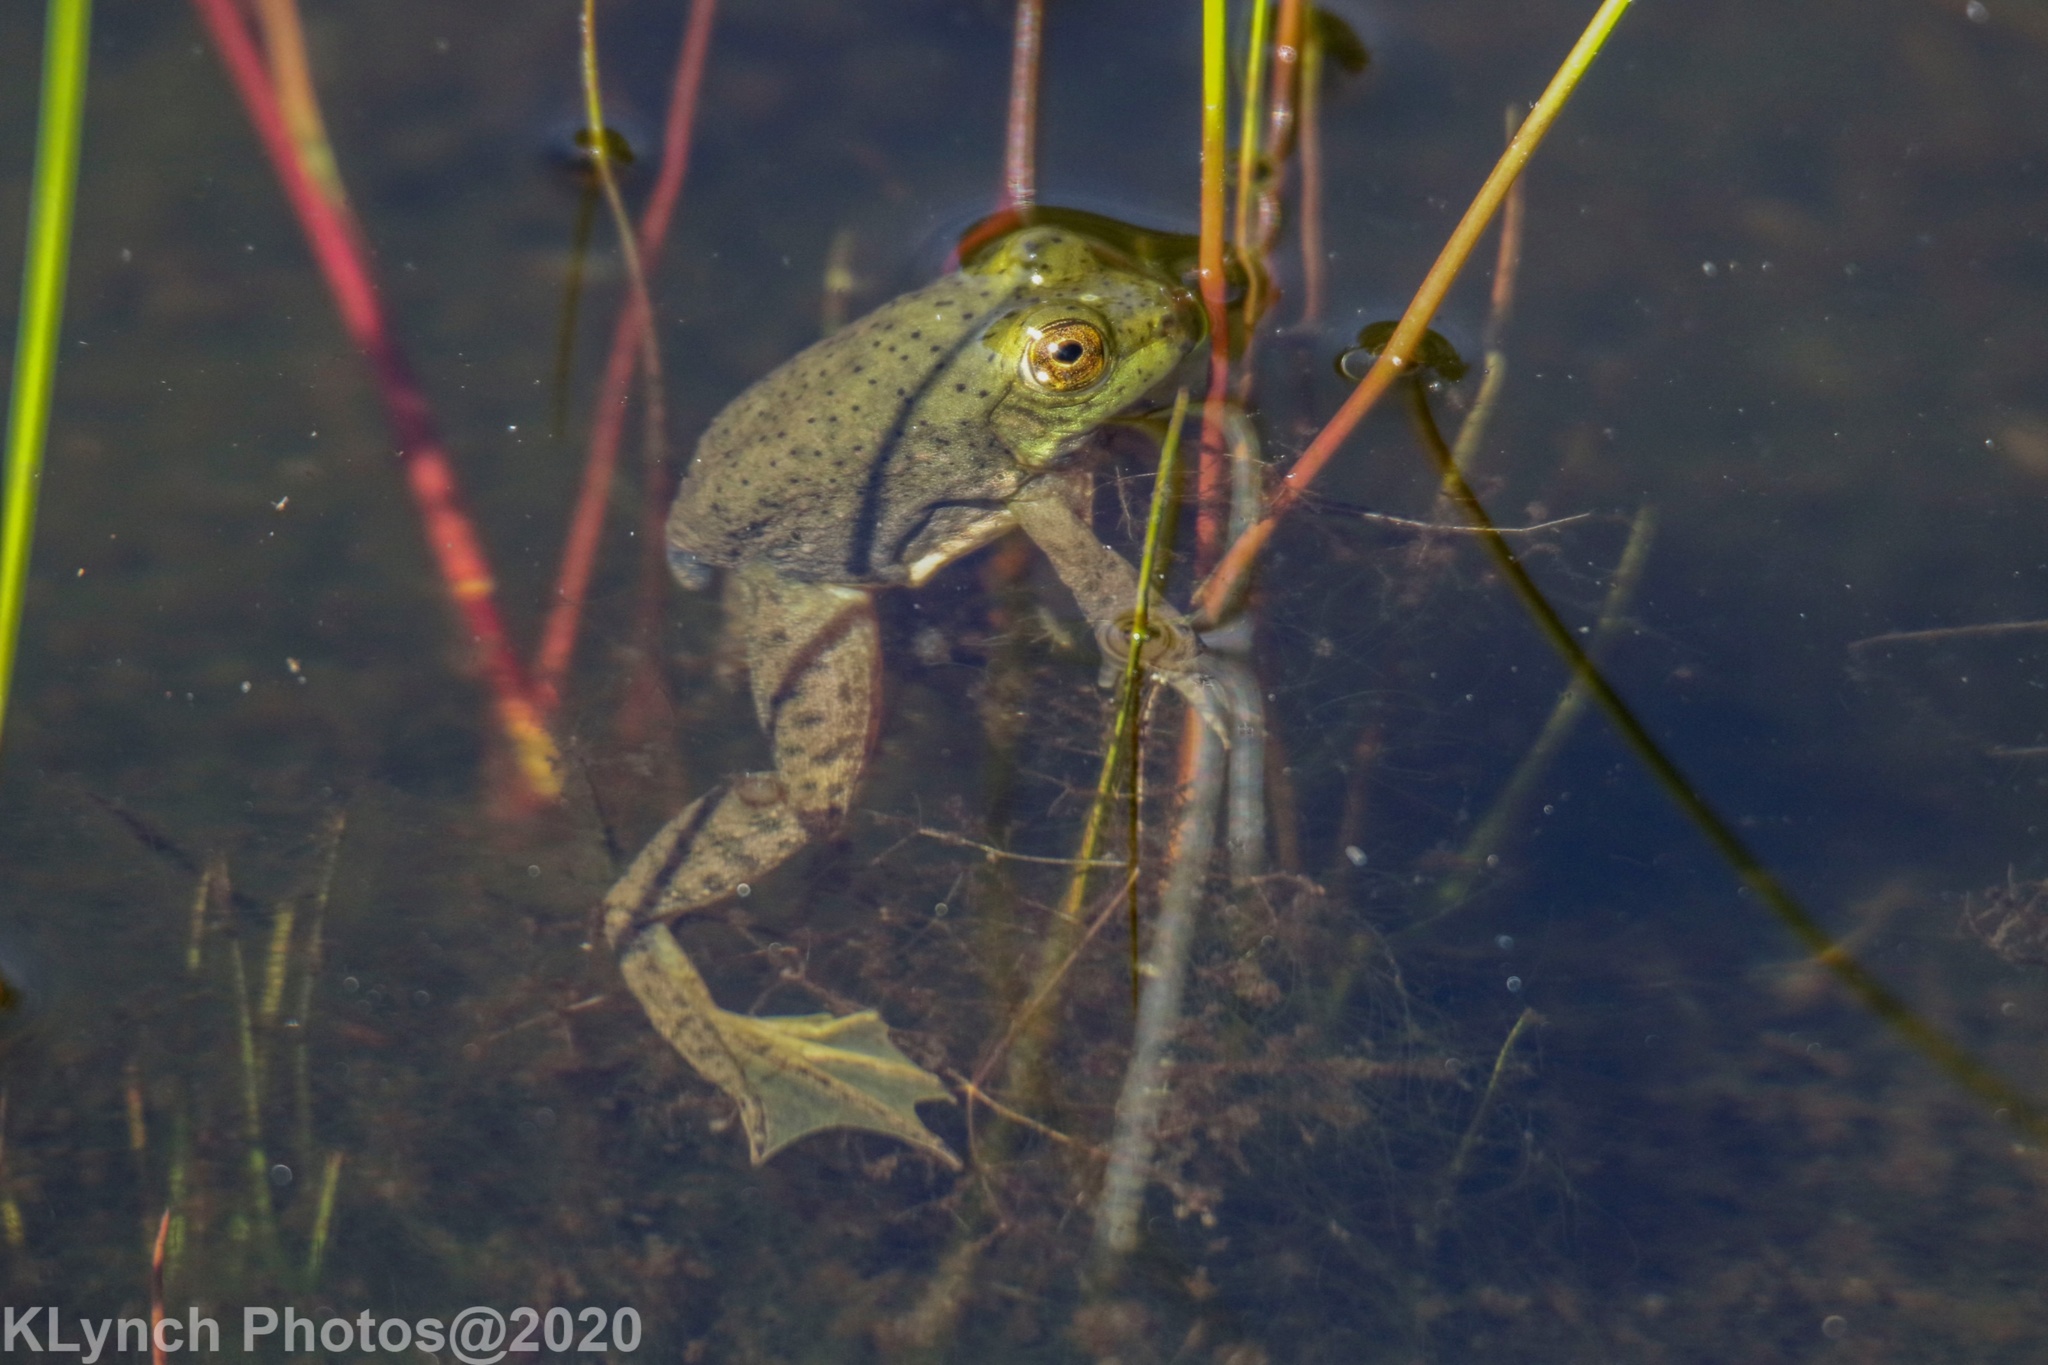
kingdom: Animalia
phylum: Chordata
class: Amphibia
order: Anura
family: Ranidae
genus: Lithobates
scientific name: Lithobates catesbeianus
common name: American bullfrog
